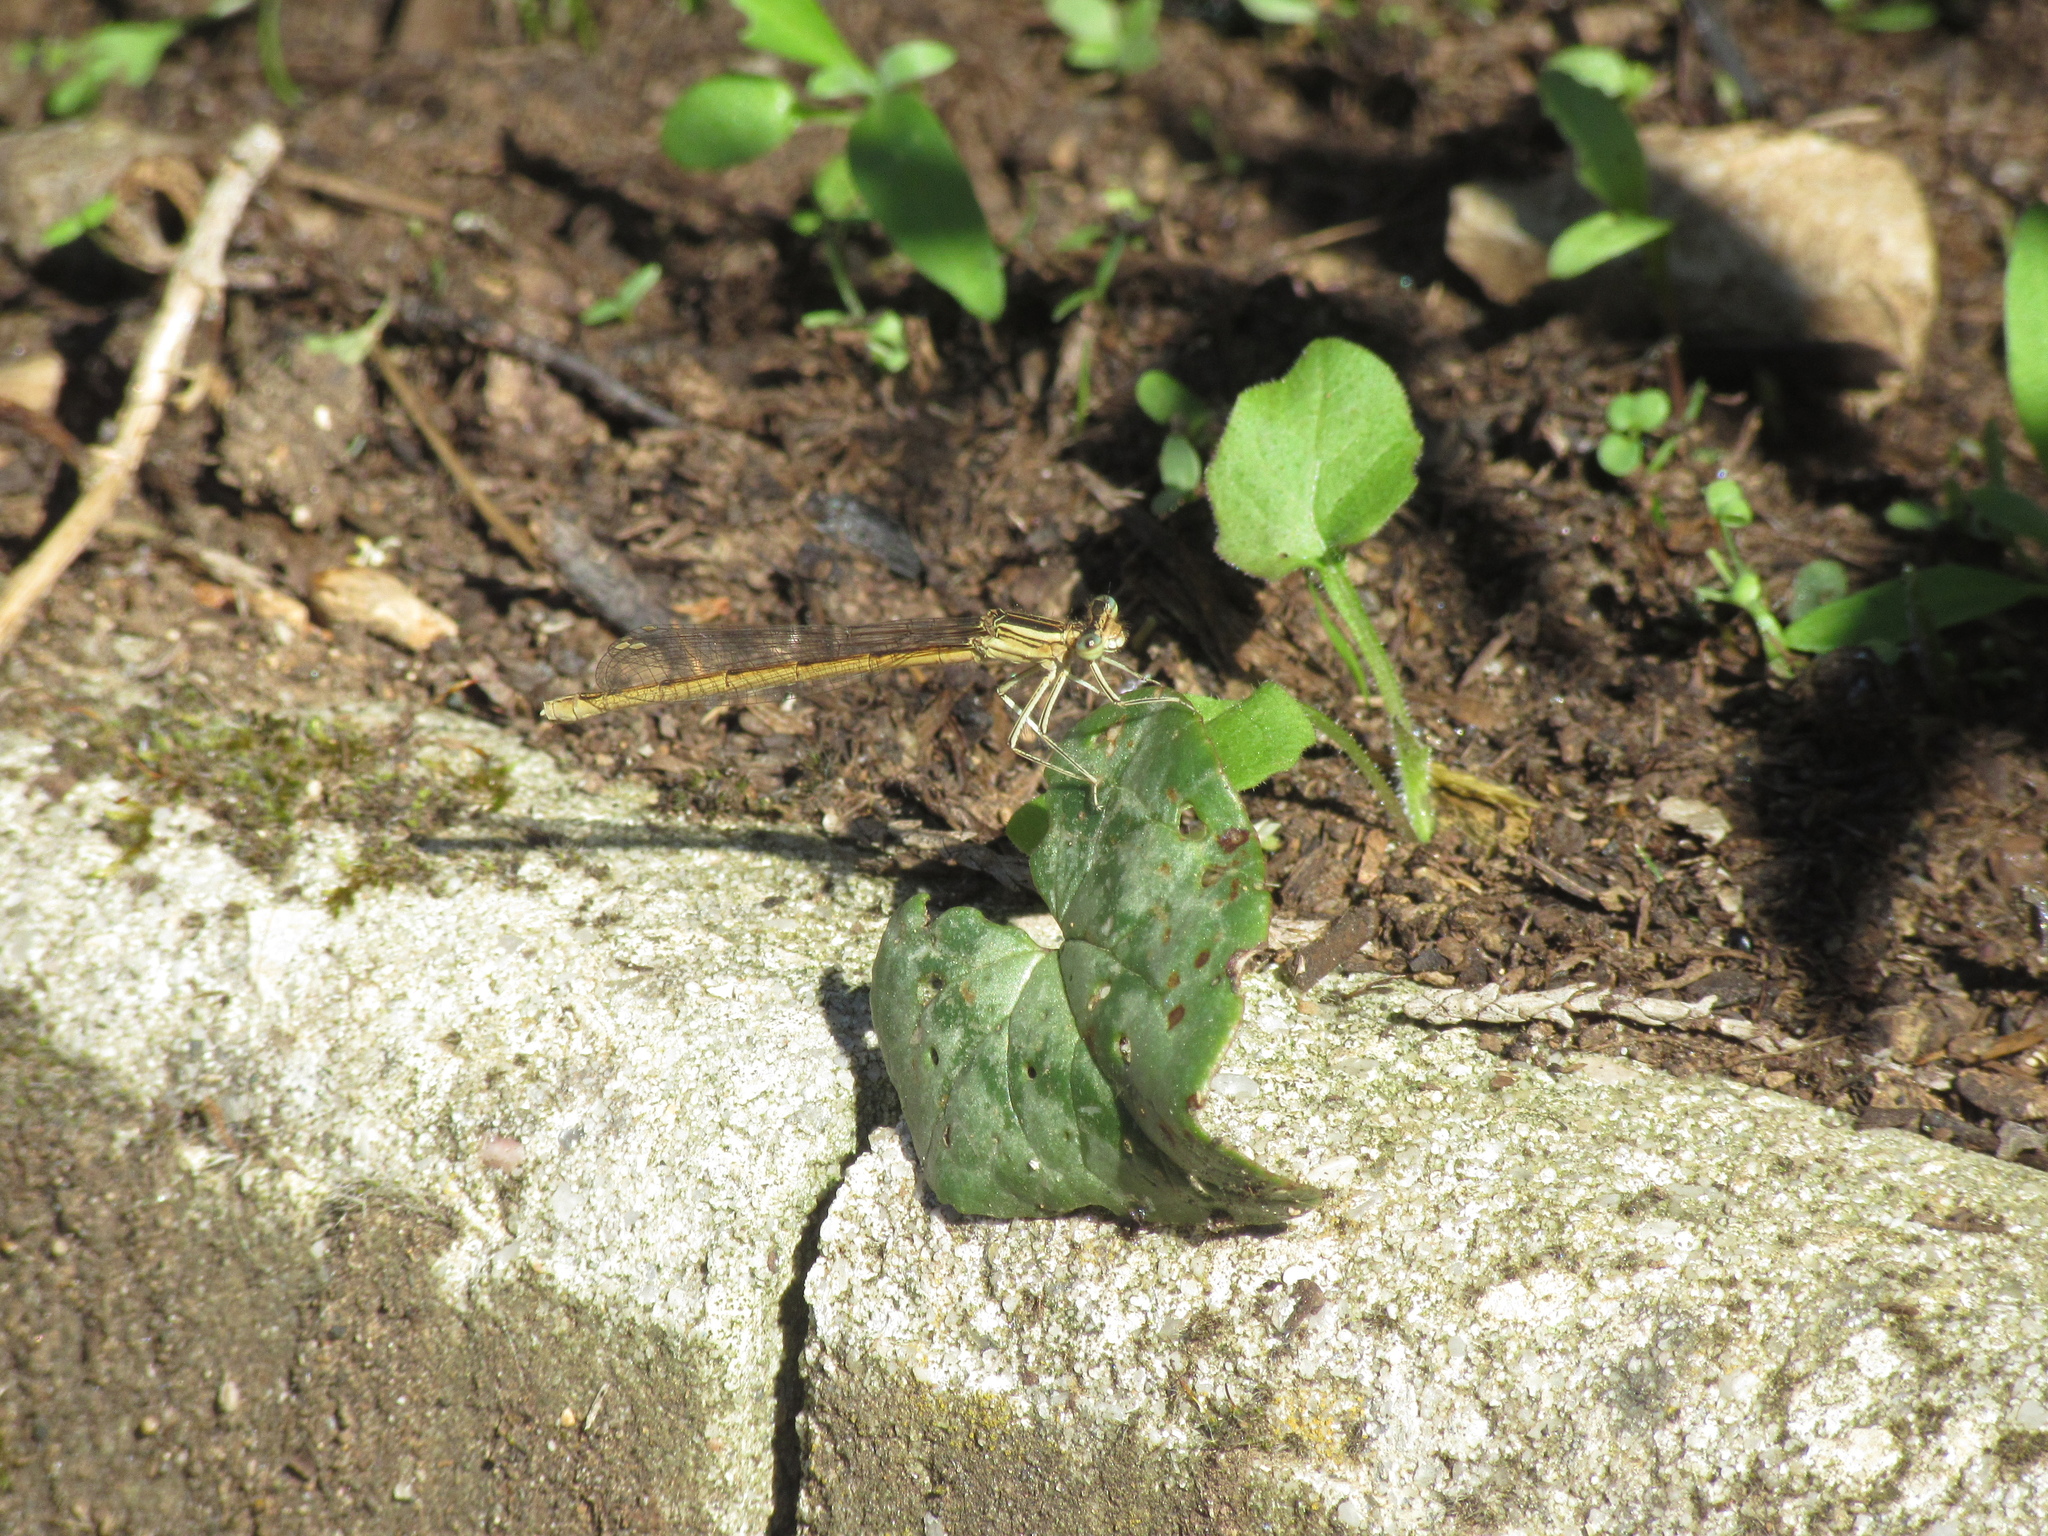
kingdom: Animalia
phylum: Arthropoda
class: Insecta
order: Odonata
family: Platycnemididae
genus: Platycnemis
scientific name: Platycnemis acutipennis
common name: Orange featherleg
